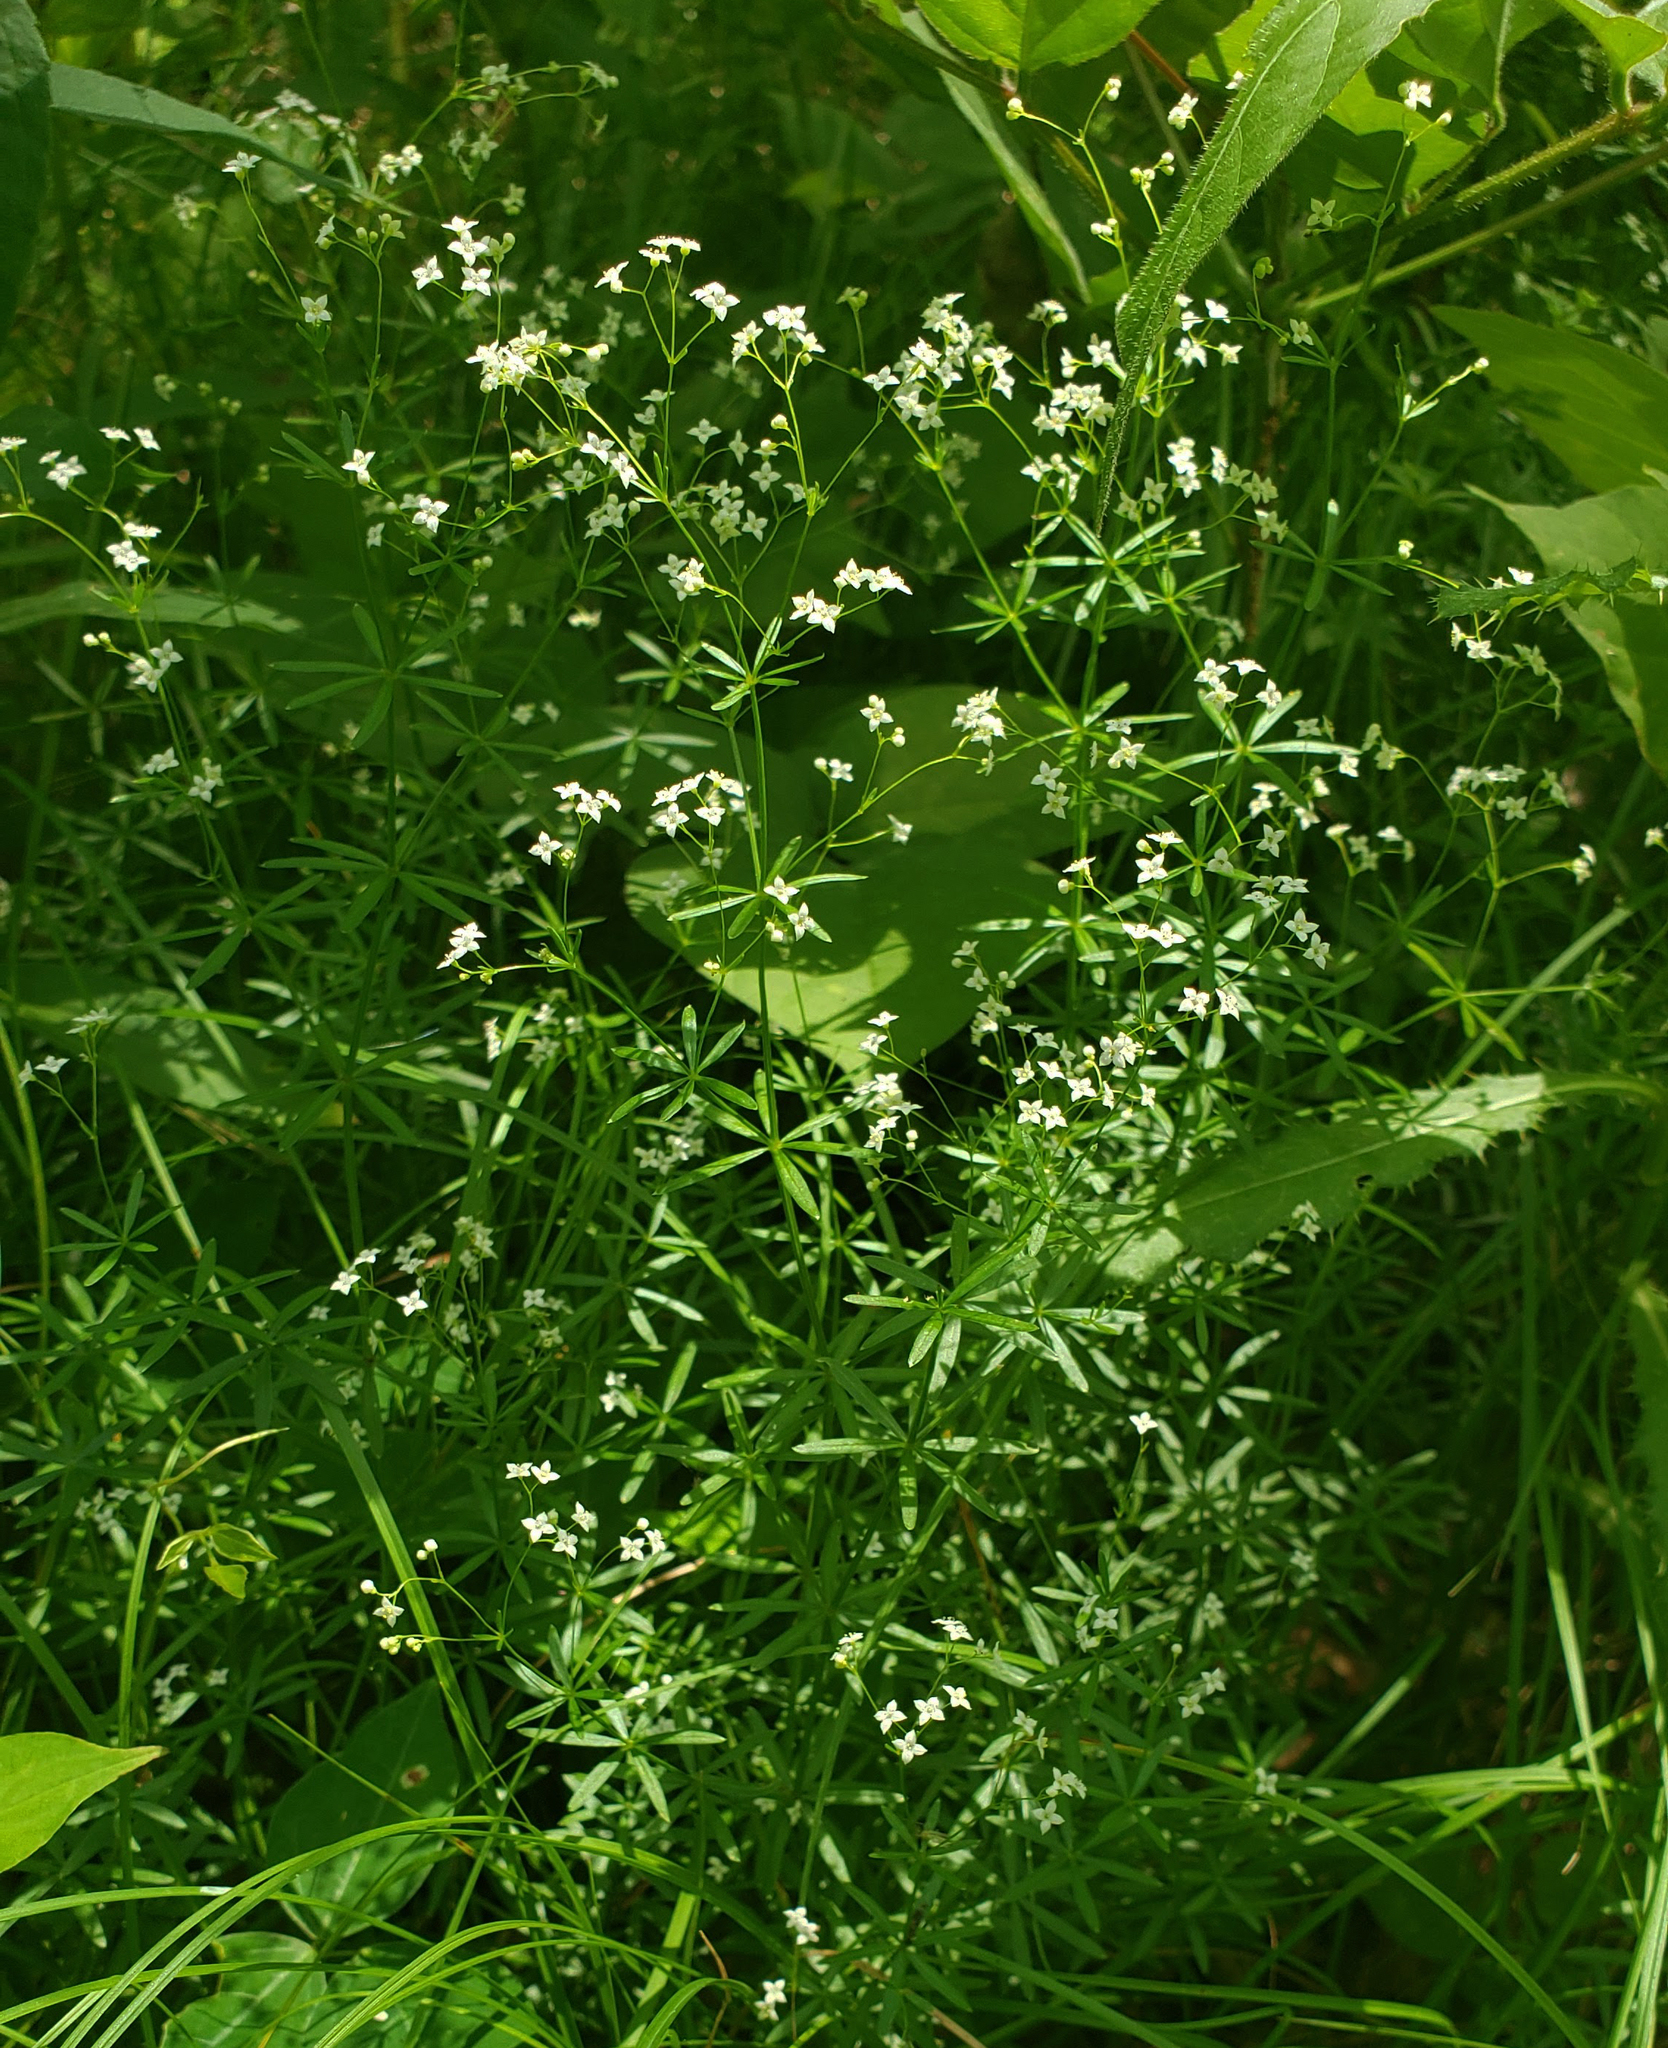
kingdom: Plantae
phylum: Tracheophyta
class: Magnoliopsida
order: Gentianales
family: Rubiaceae
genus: Galium
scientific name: Galium concinnum
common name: Shining bedstraw
